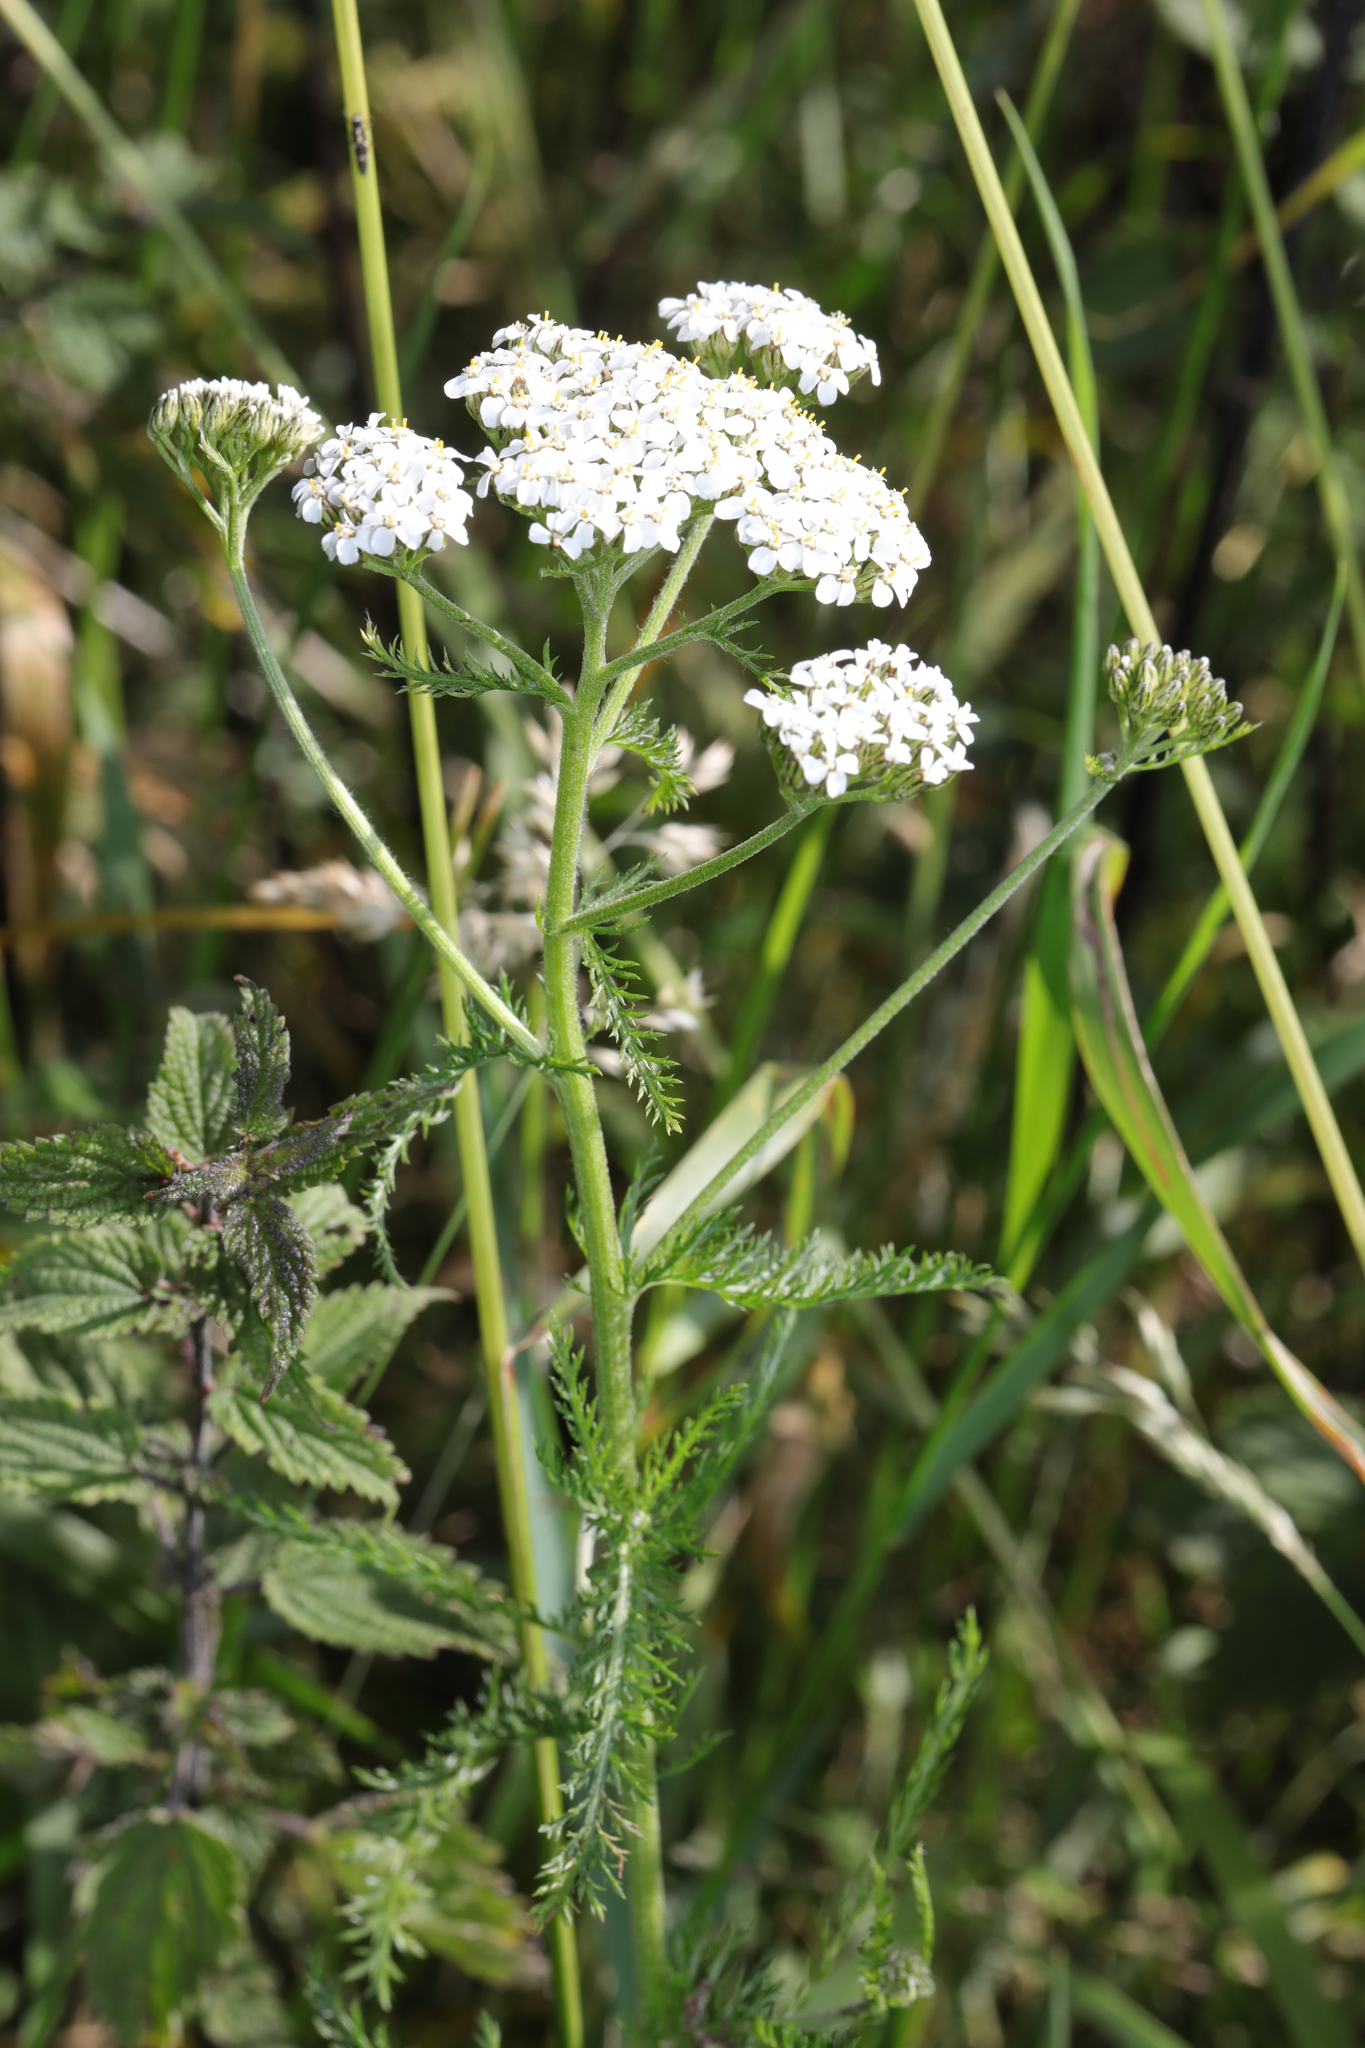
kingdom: Plantae
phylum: Tracheophyta
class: Magnoliopsida
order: Asterales
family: Asteraceae
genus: Achillea
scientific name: Achillea millefolium
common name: Yarrow
